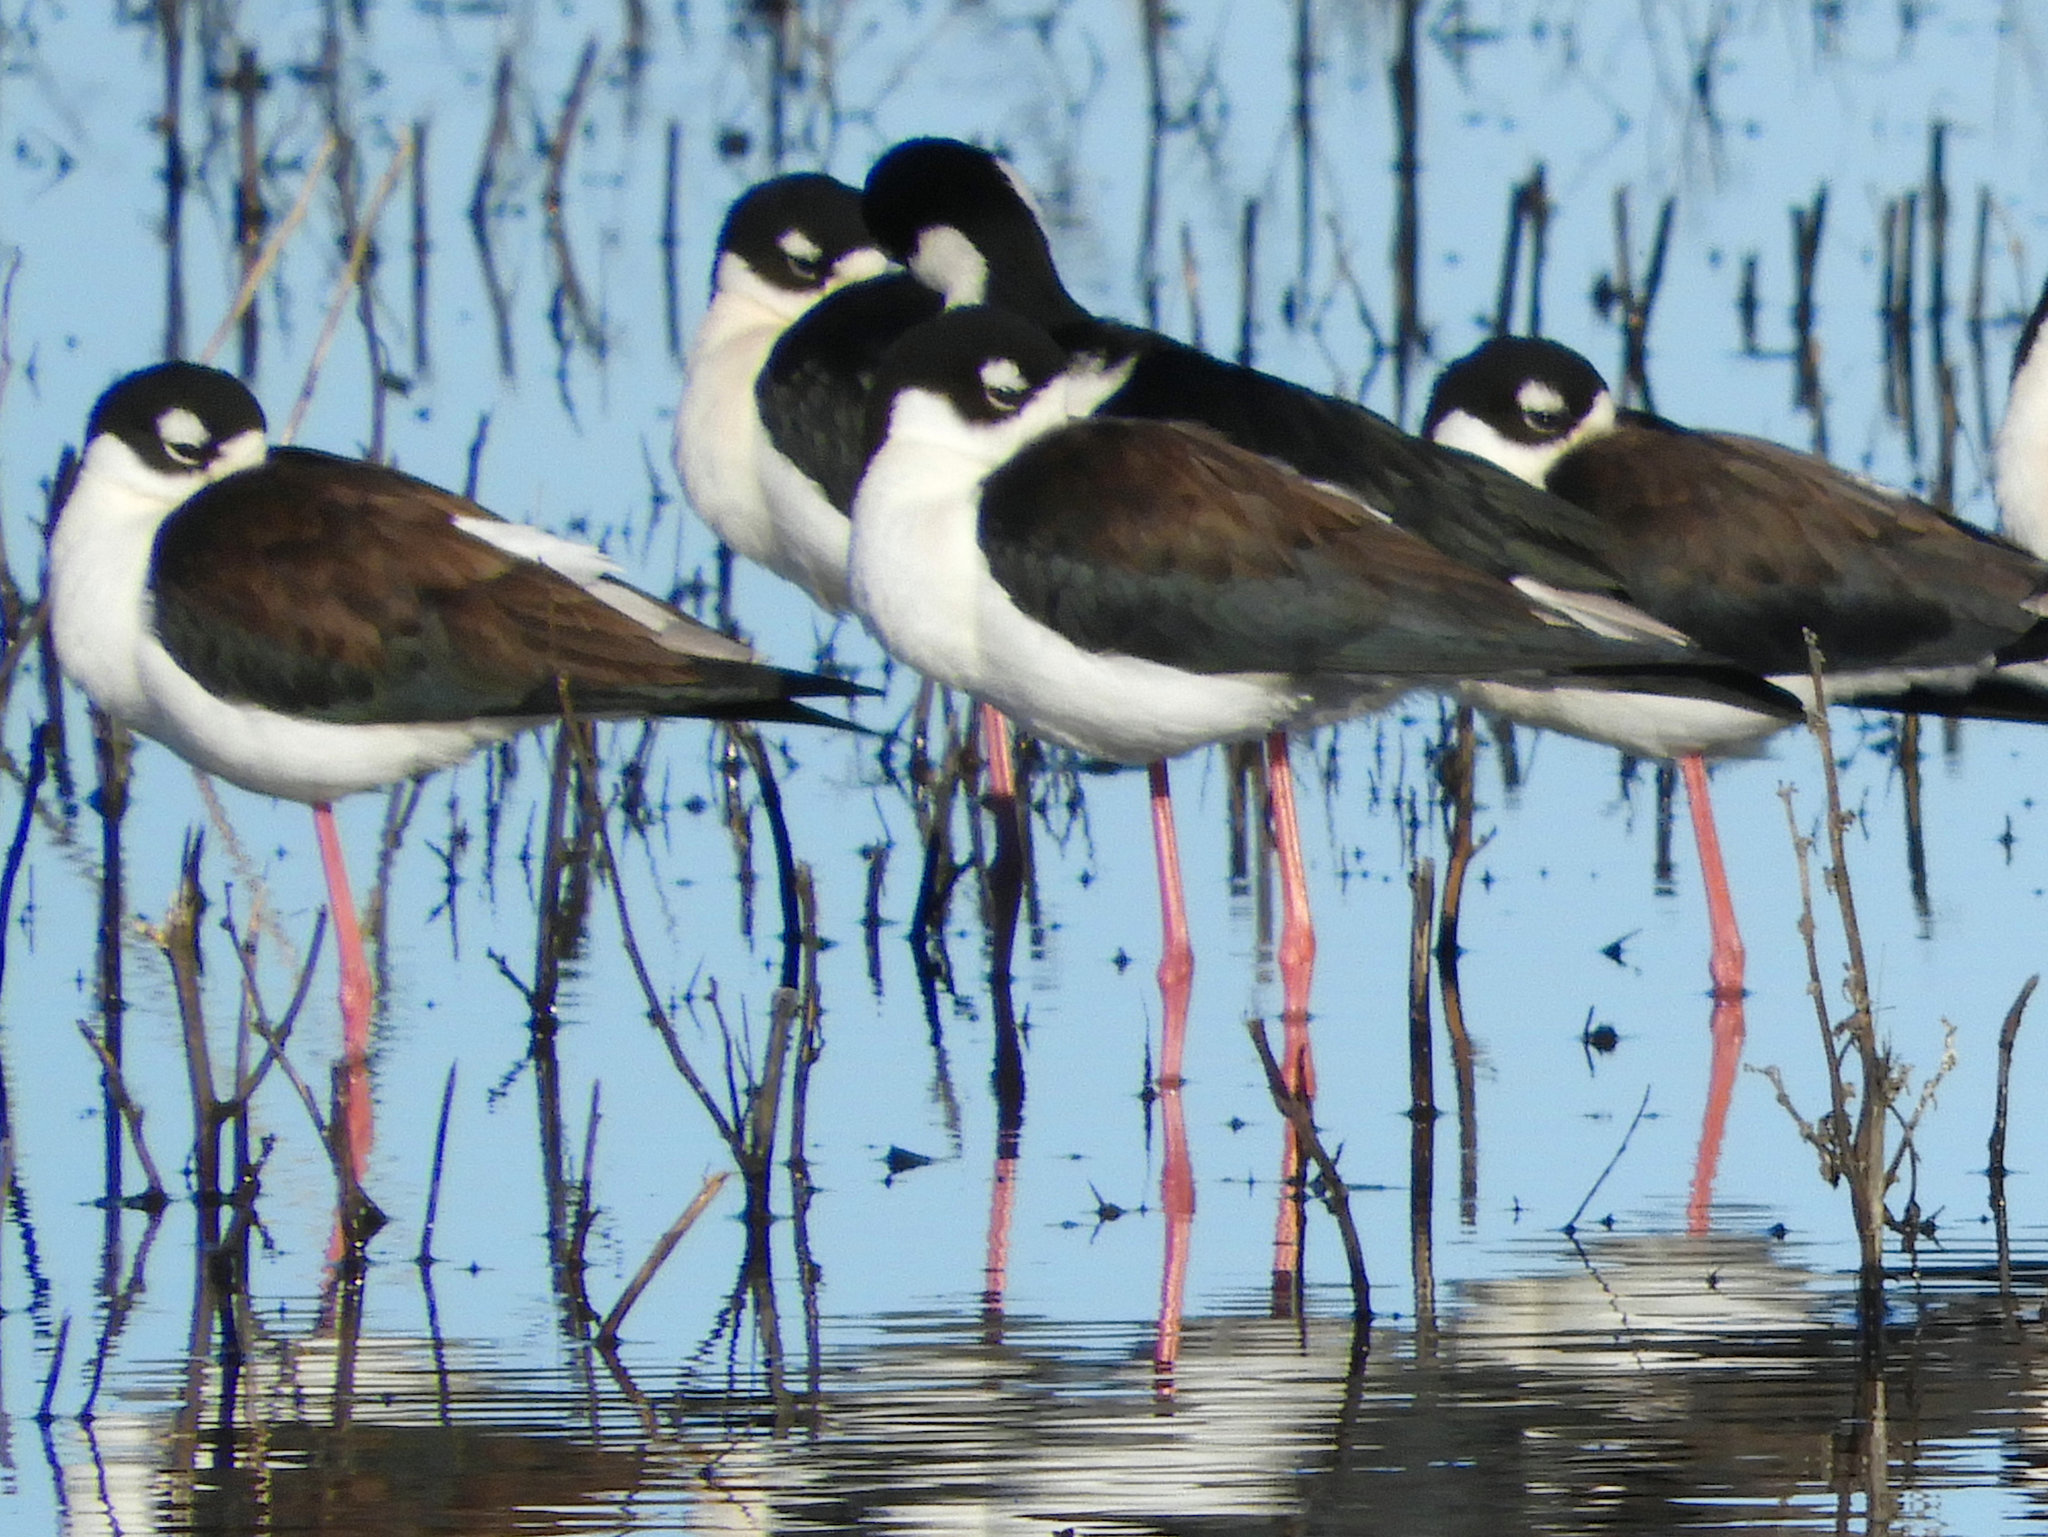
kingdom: Animalia
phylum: Chordata
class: Aves
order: Charadriiformes
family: Recurvirostridae
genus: Himantopus
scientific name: Himantopus mexicanus
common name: Black-necked stilt
